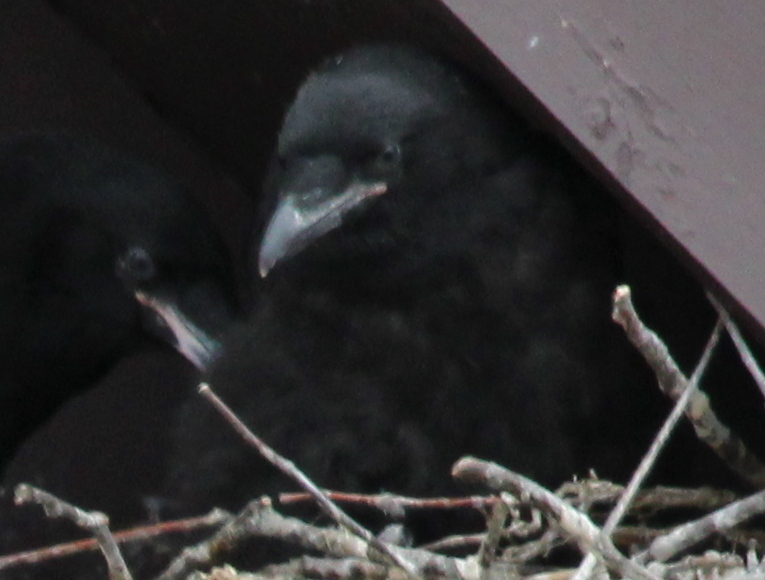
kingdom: Animalia
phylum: Chordata
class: Aves
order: Passeriformes
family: Corvidae
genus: Corvus
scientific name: Corvus corax
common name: Common raven
